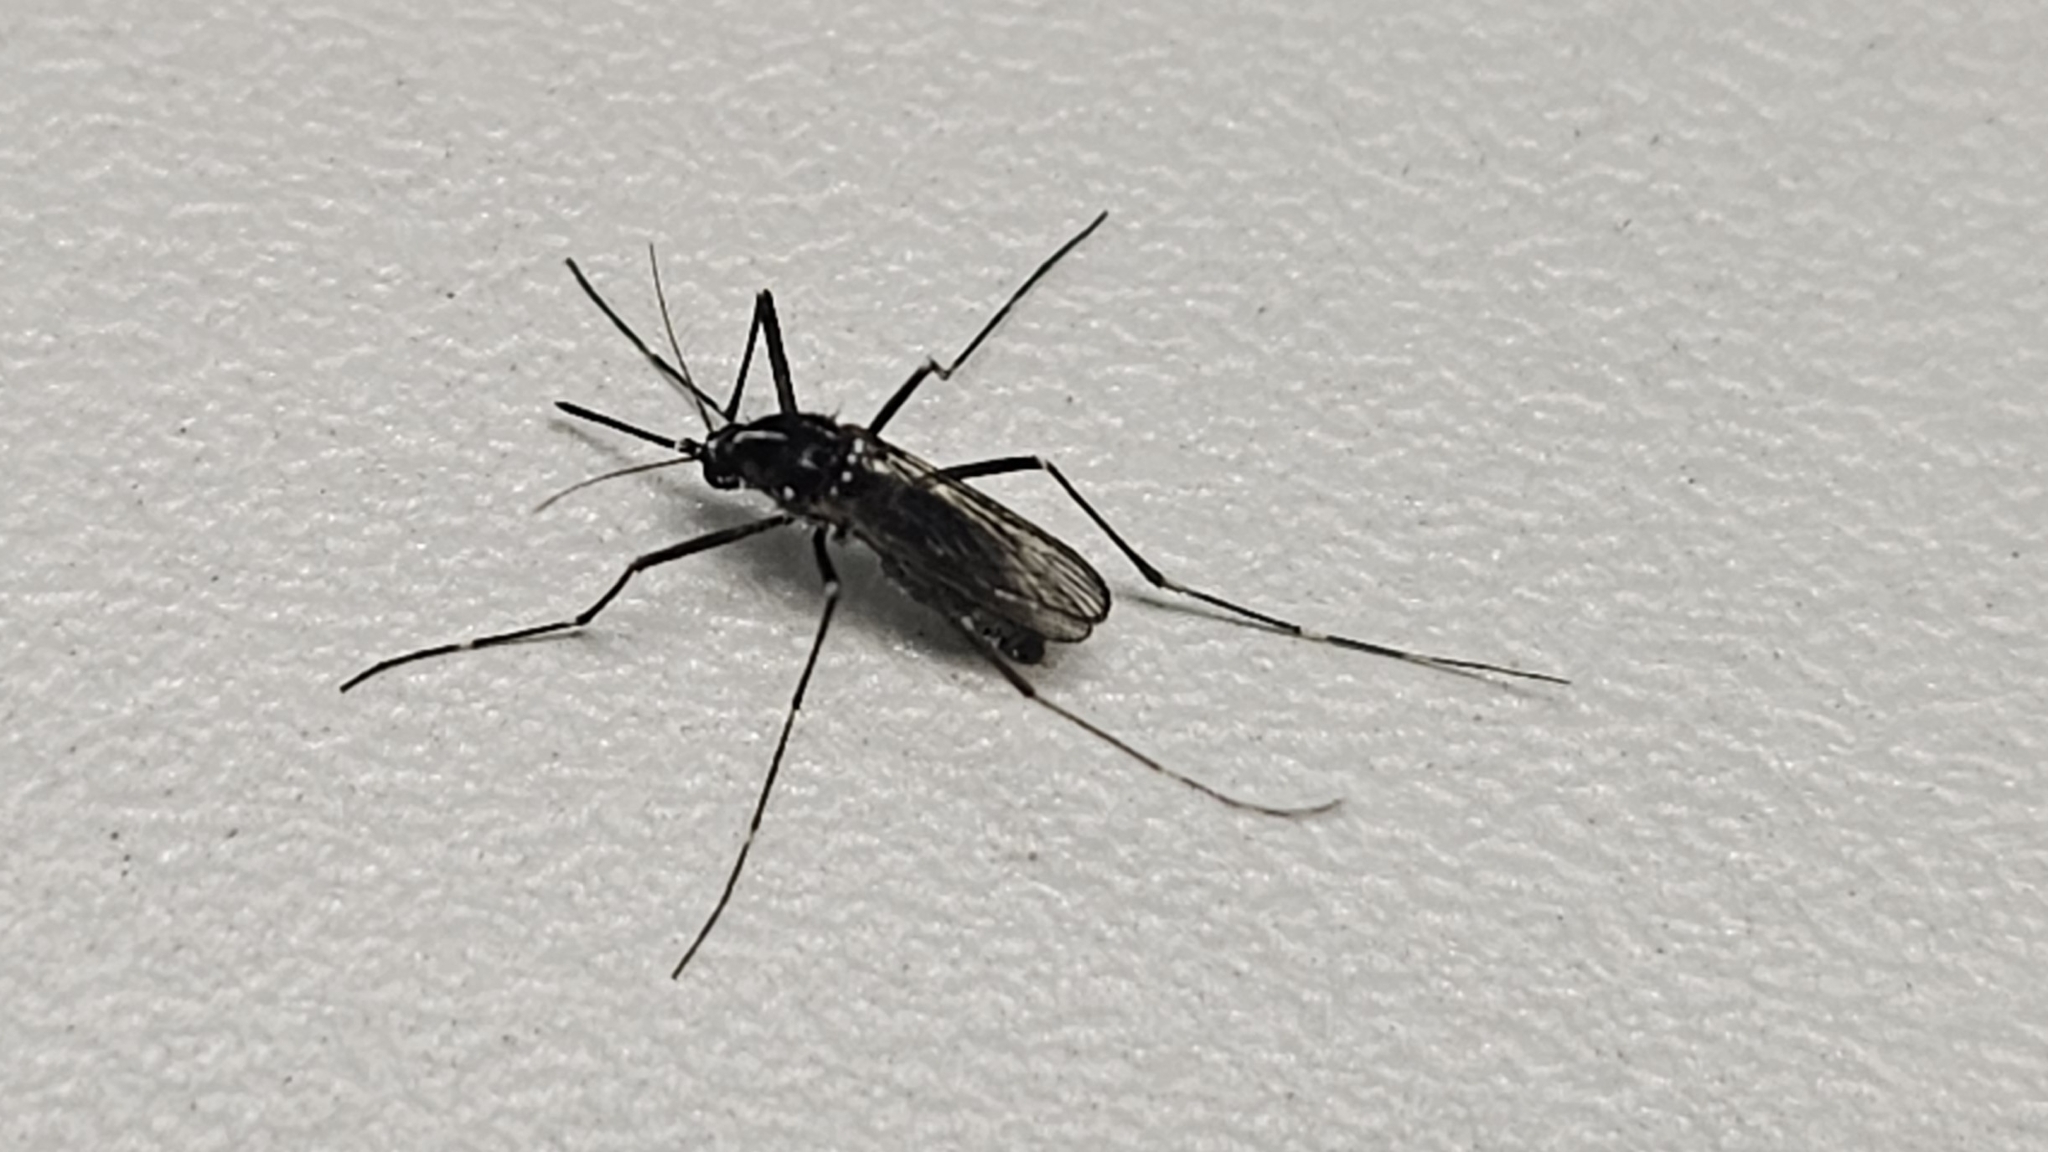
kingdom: Animalia
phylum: Arthropoda
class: Insecta
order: Diptera
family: Culicidae
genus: Aedes
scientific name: Aedes albopictus
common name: Tiger mosquito
